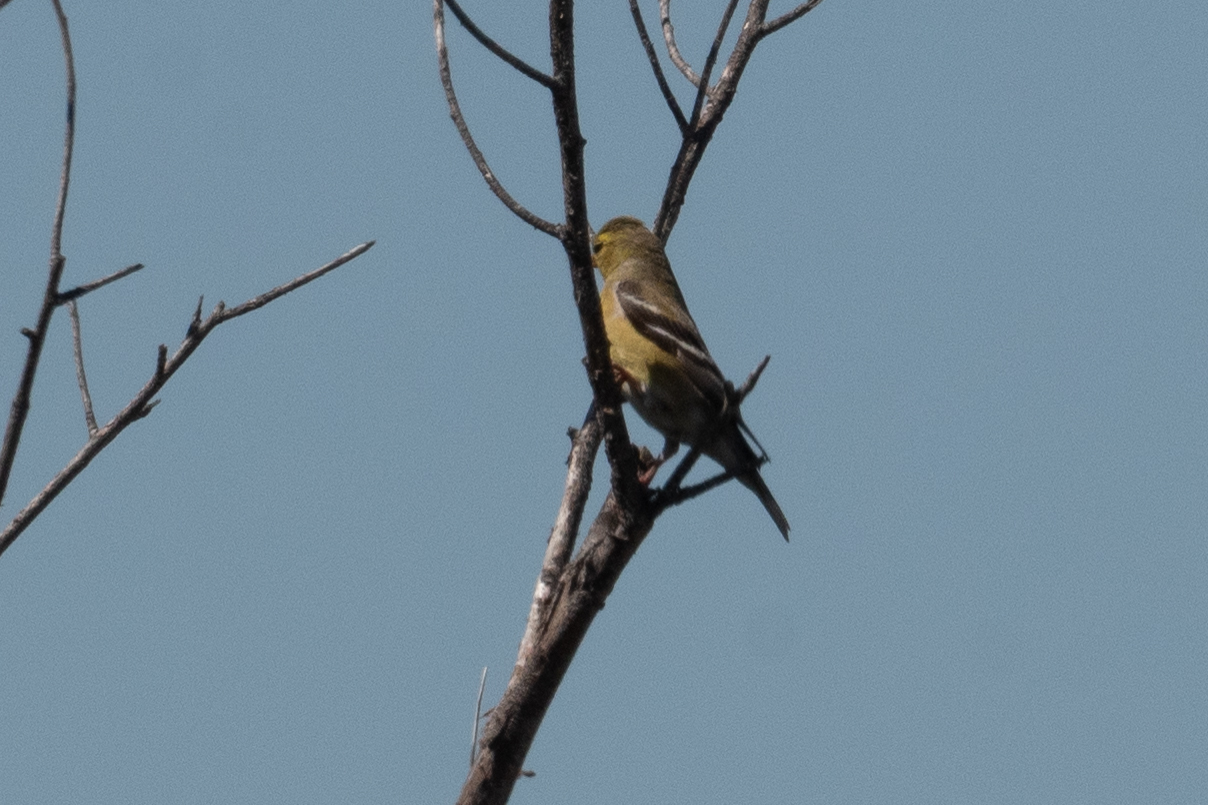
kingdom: Animalia
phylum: Chordata
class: Aves
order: Passeriformes
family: Fringillidae
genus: Spinus
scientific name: Spinus psaltria
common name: Lesser goldfinch
